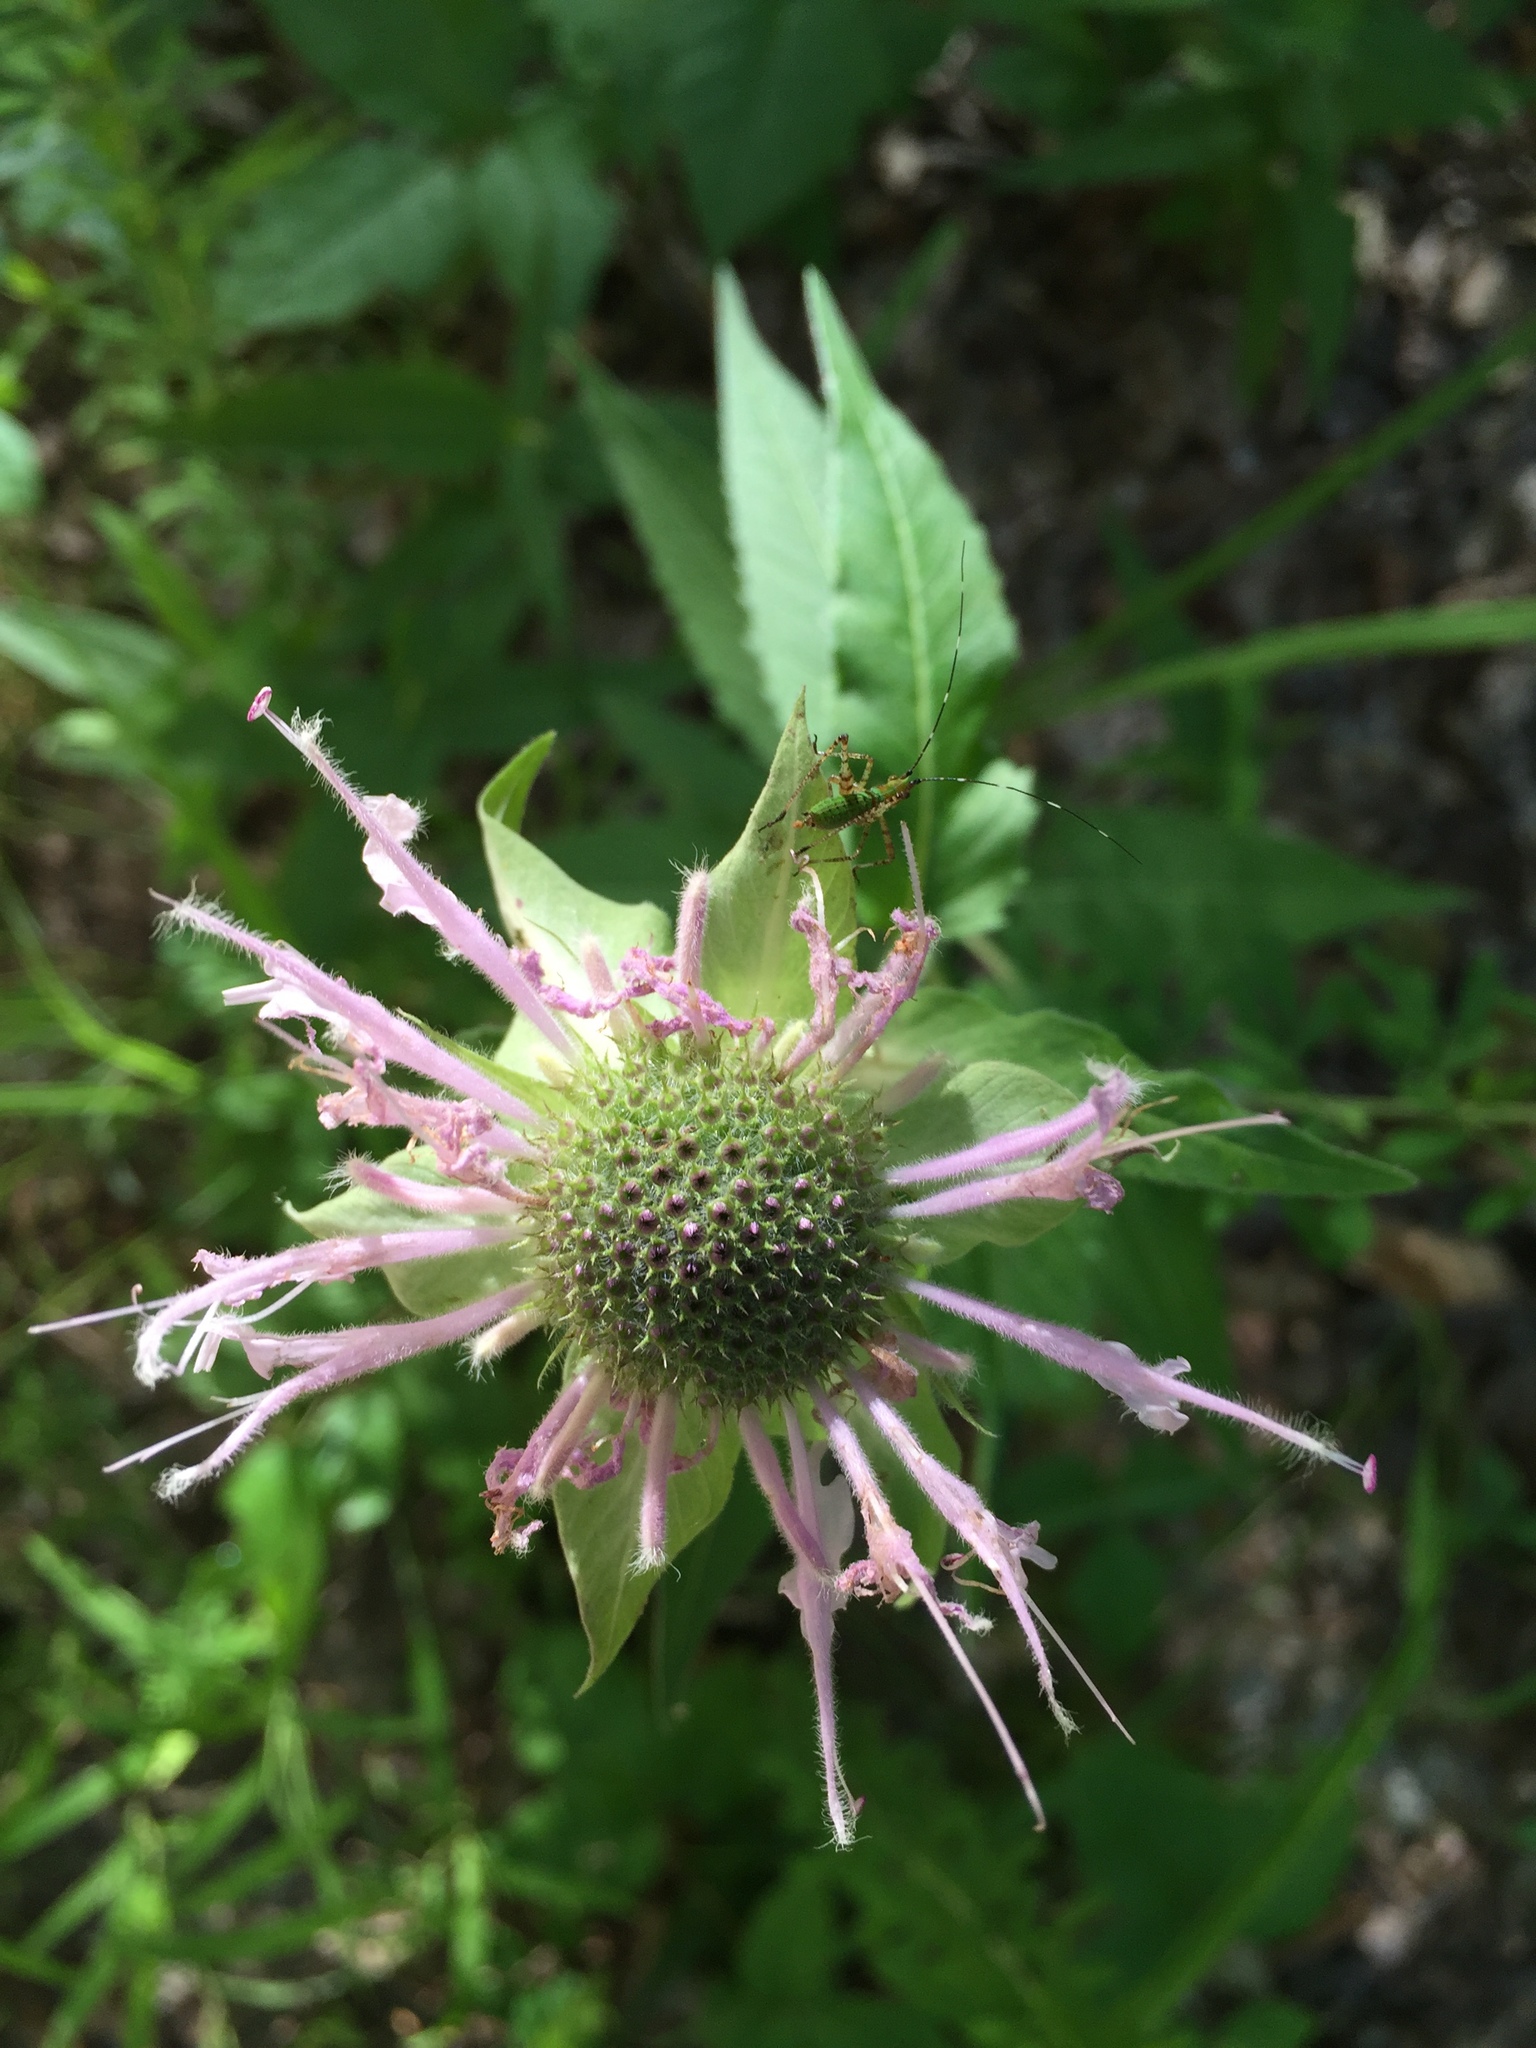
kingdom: Plantae
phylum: Tracheophyta
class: Magnoliopsida
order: Lamiales
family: Lamiaceae
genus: Monarda
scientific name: Monarda fistulosa
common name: Purple beebalm
